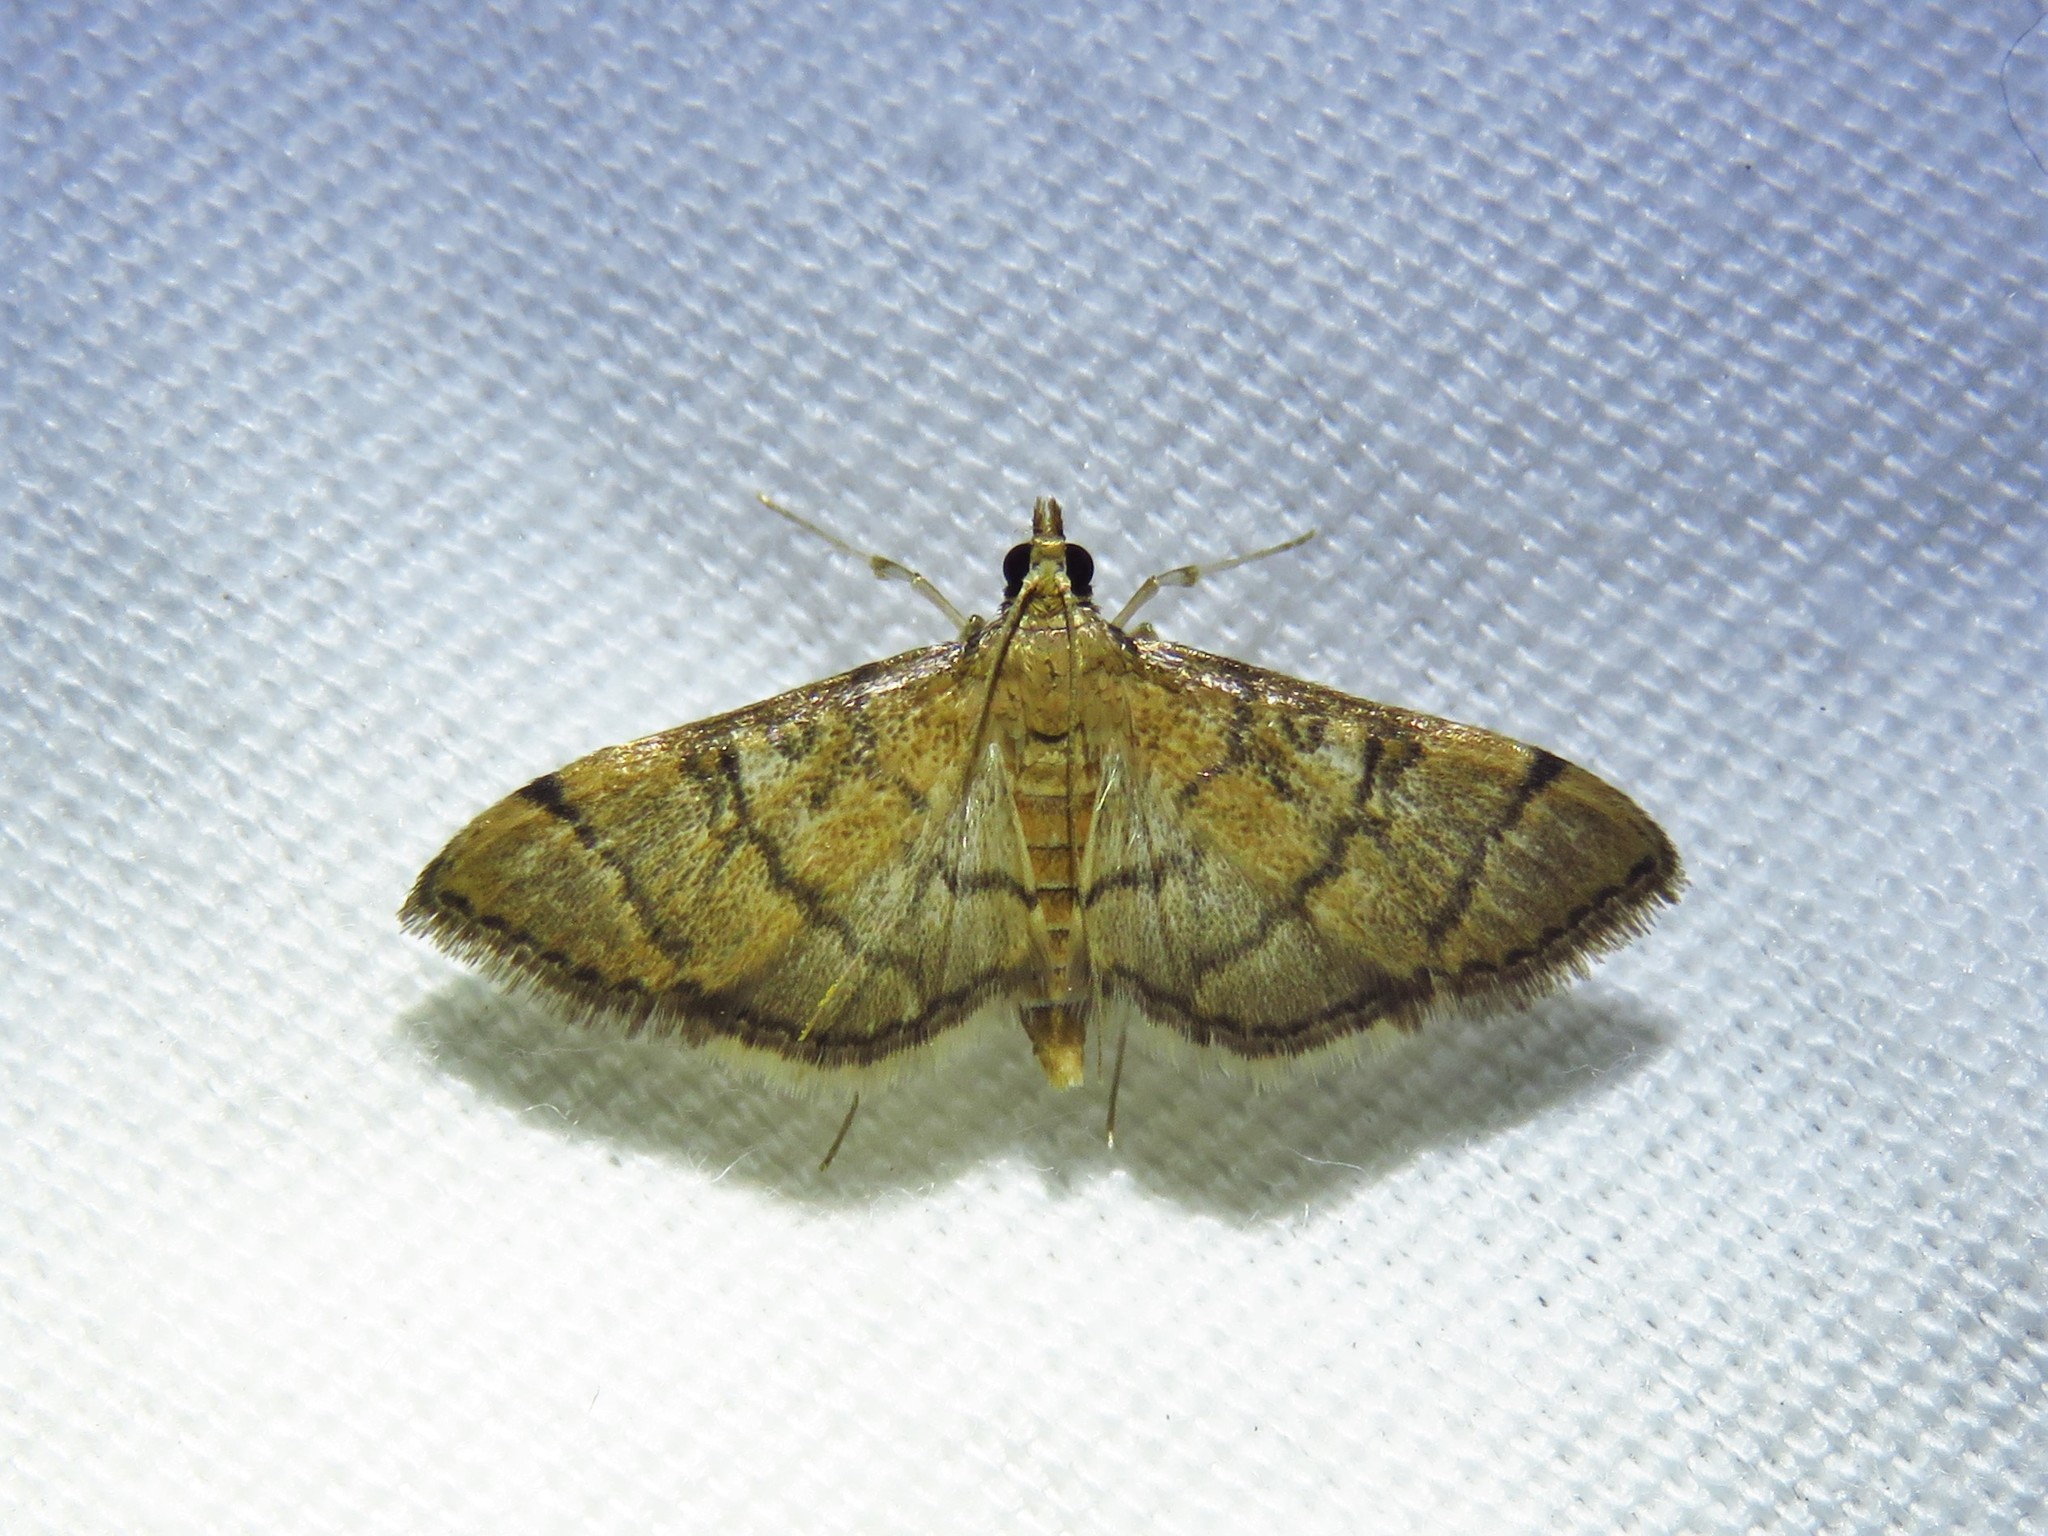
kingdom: Animalia
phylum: Arthropoda
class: Insecta
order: Lepidoptera
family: Crambidae
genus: Lamprosema
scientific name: Lamprosema Blepharomastix ranalis
